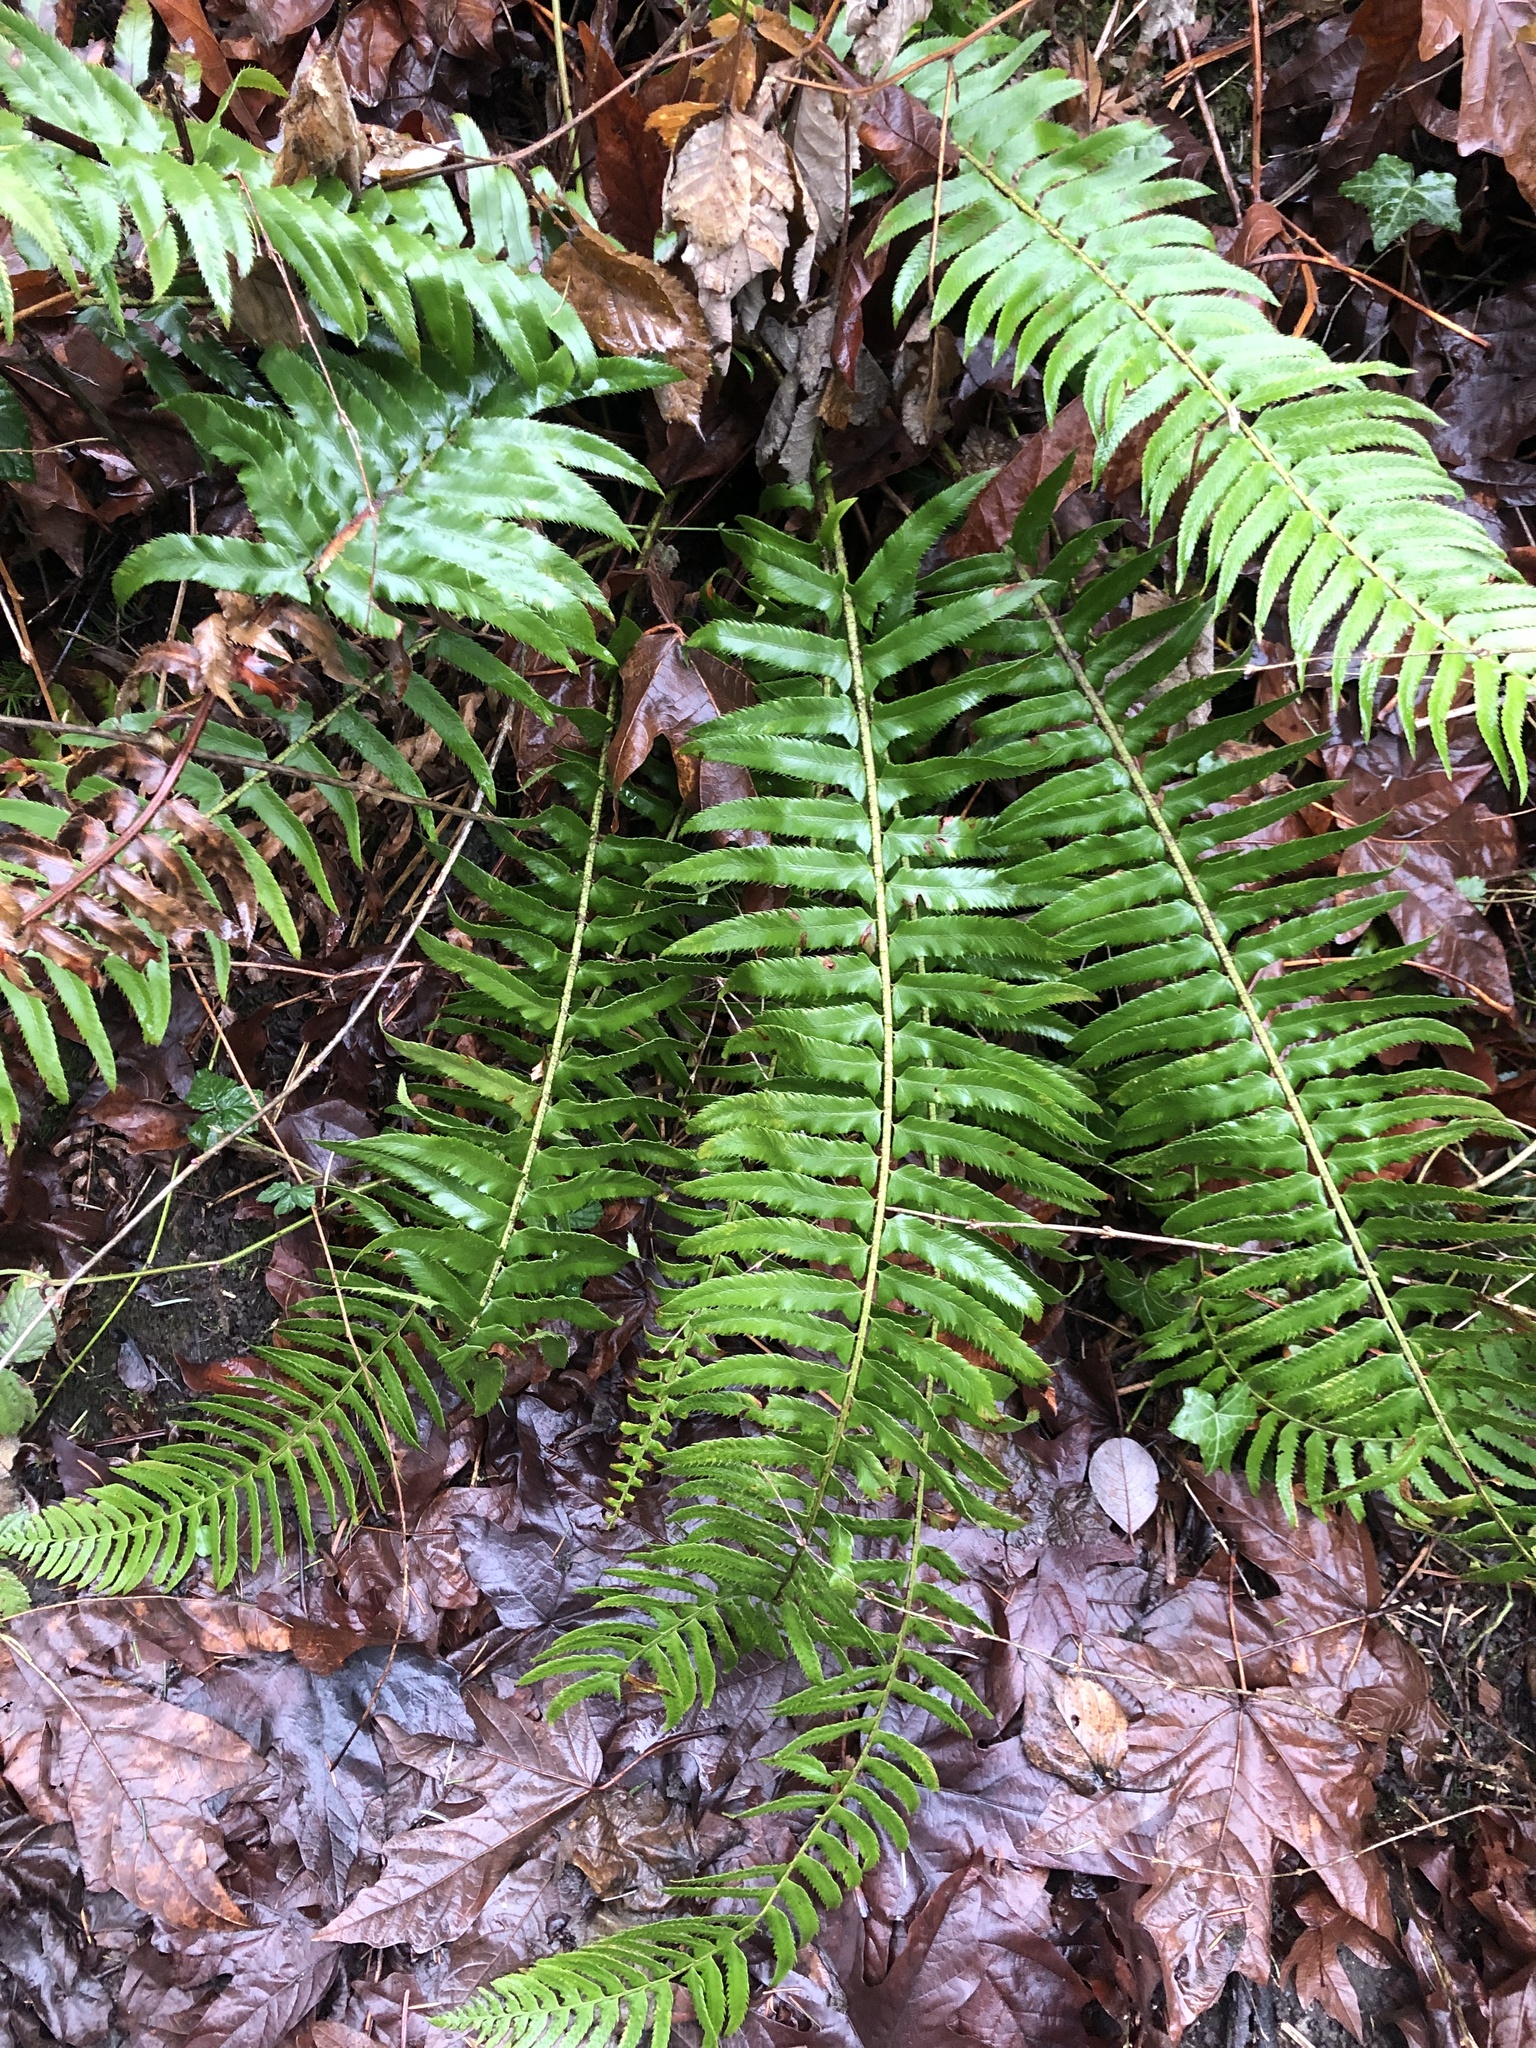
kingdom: Plantae
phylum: Tracheophyta
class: Polypodiopsida
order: Polypodiales
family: Dryopteridaceae
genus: Polystichum
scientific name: Polystichum munitum
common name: Western sword-fern
